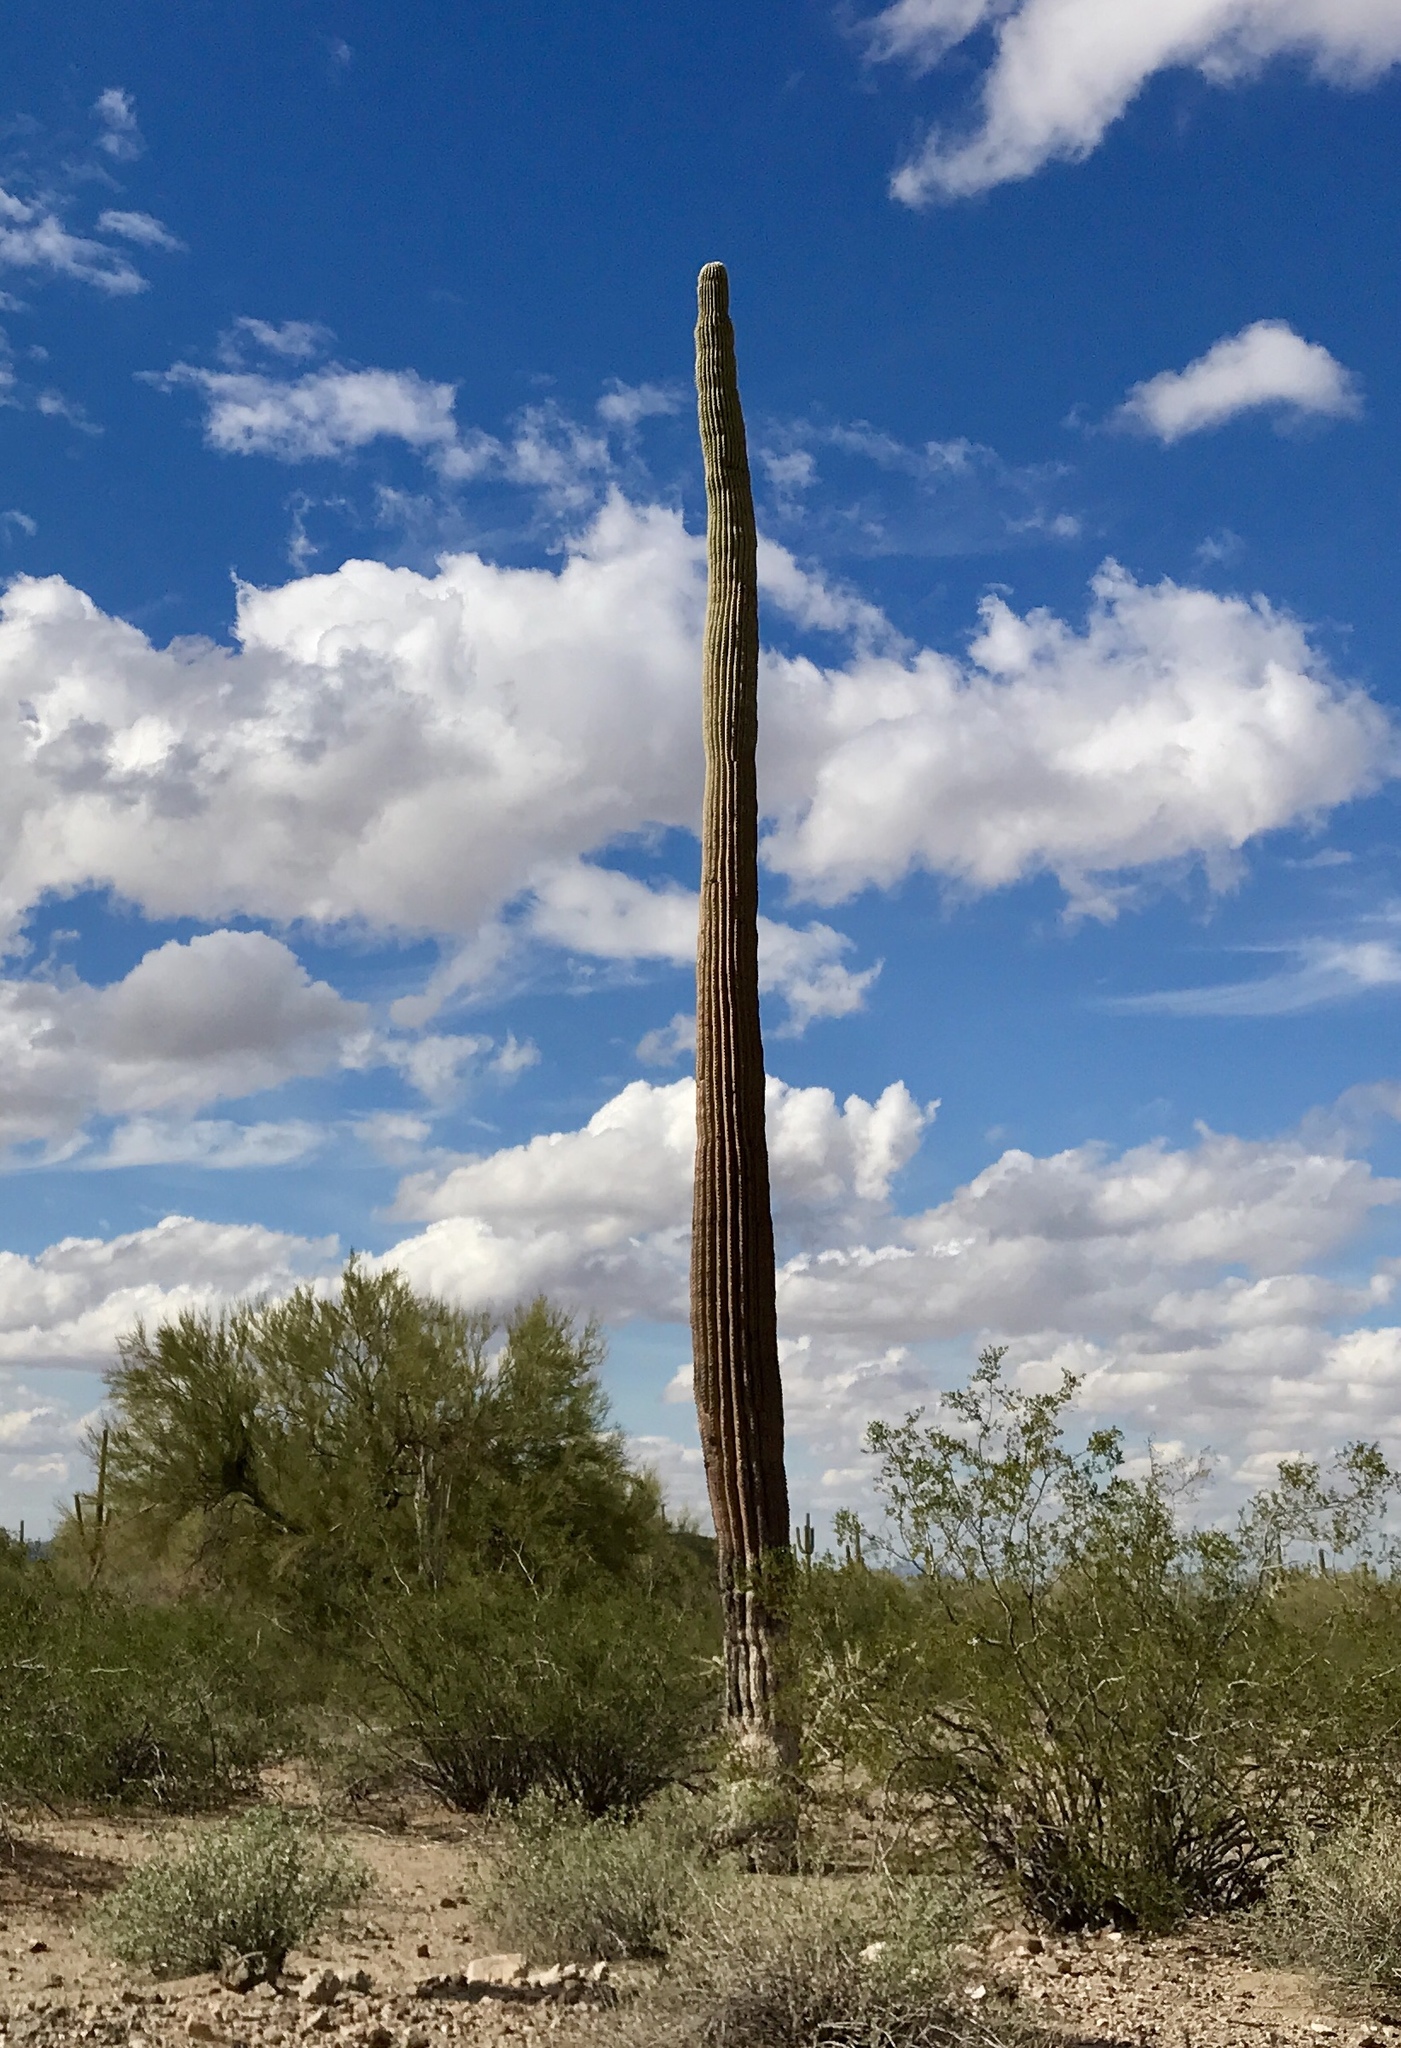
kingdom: Plantae
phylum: Tracheophyta
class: Magnoliopsida
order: Caryophyllales
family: Cactaceae
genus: Carnegiea
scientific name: Carnegiea gigantea
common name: Saguaro
